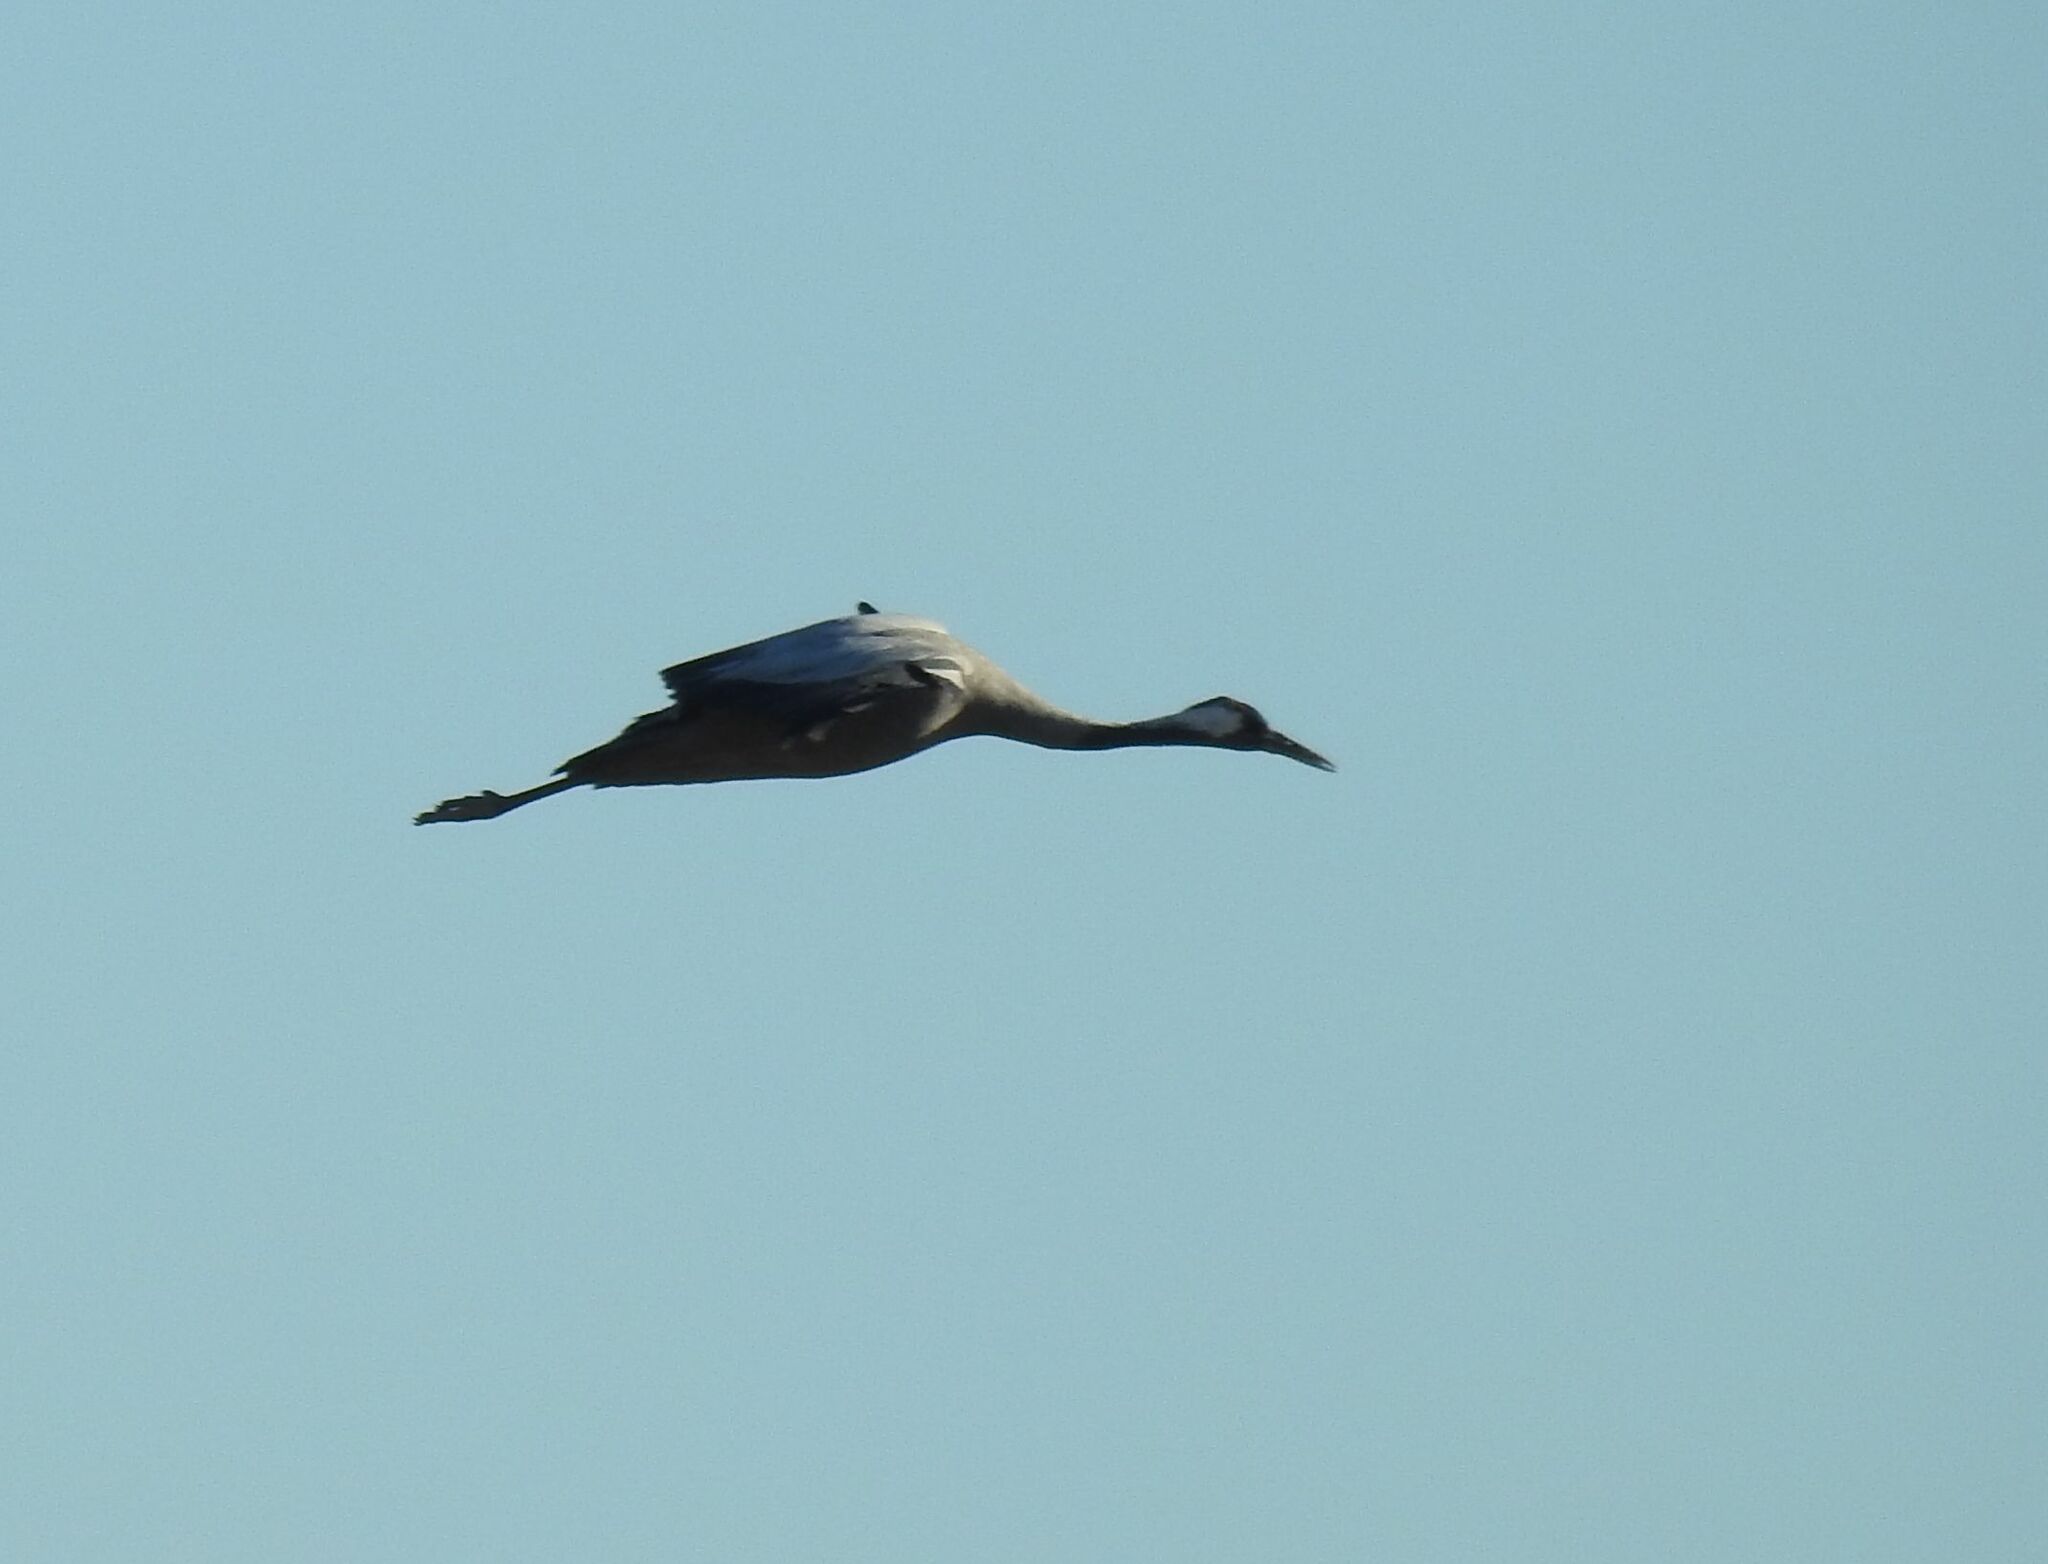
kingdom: Animalia
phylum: Chordata
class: Aves
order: Gruiformes
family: Gruidae
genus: Grus
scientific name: Grus grus
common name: Common crane
